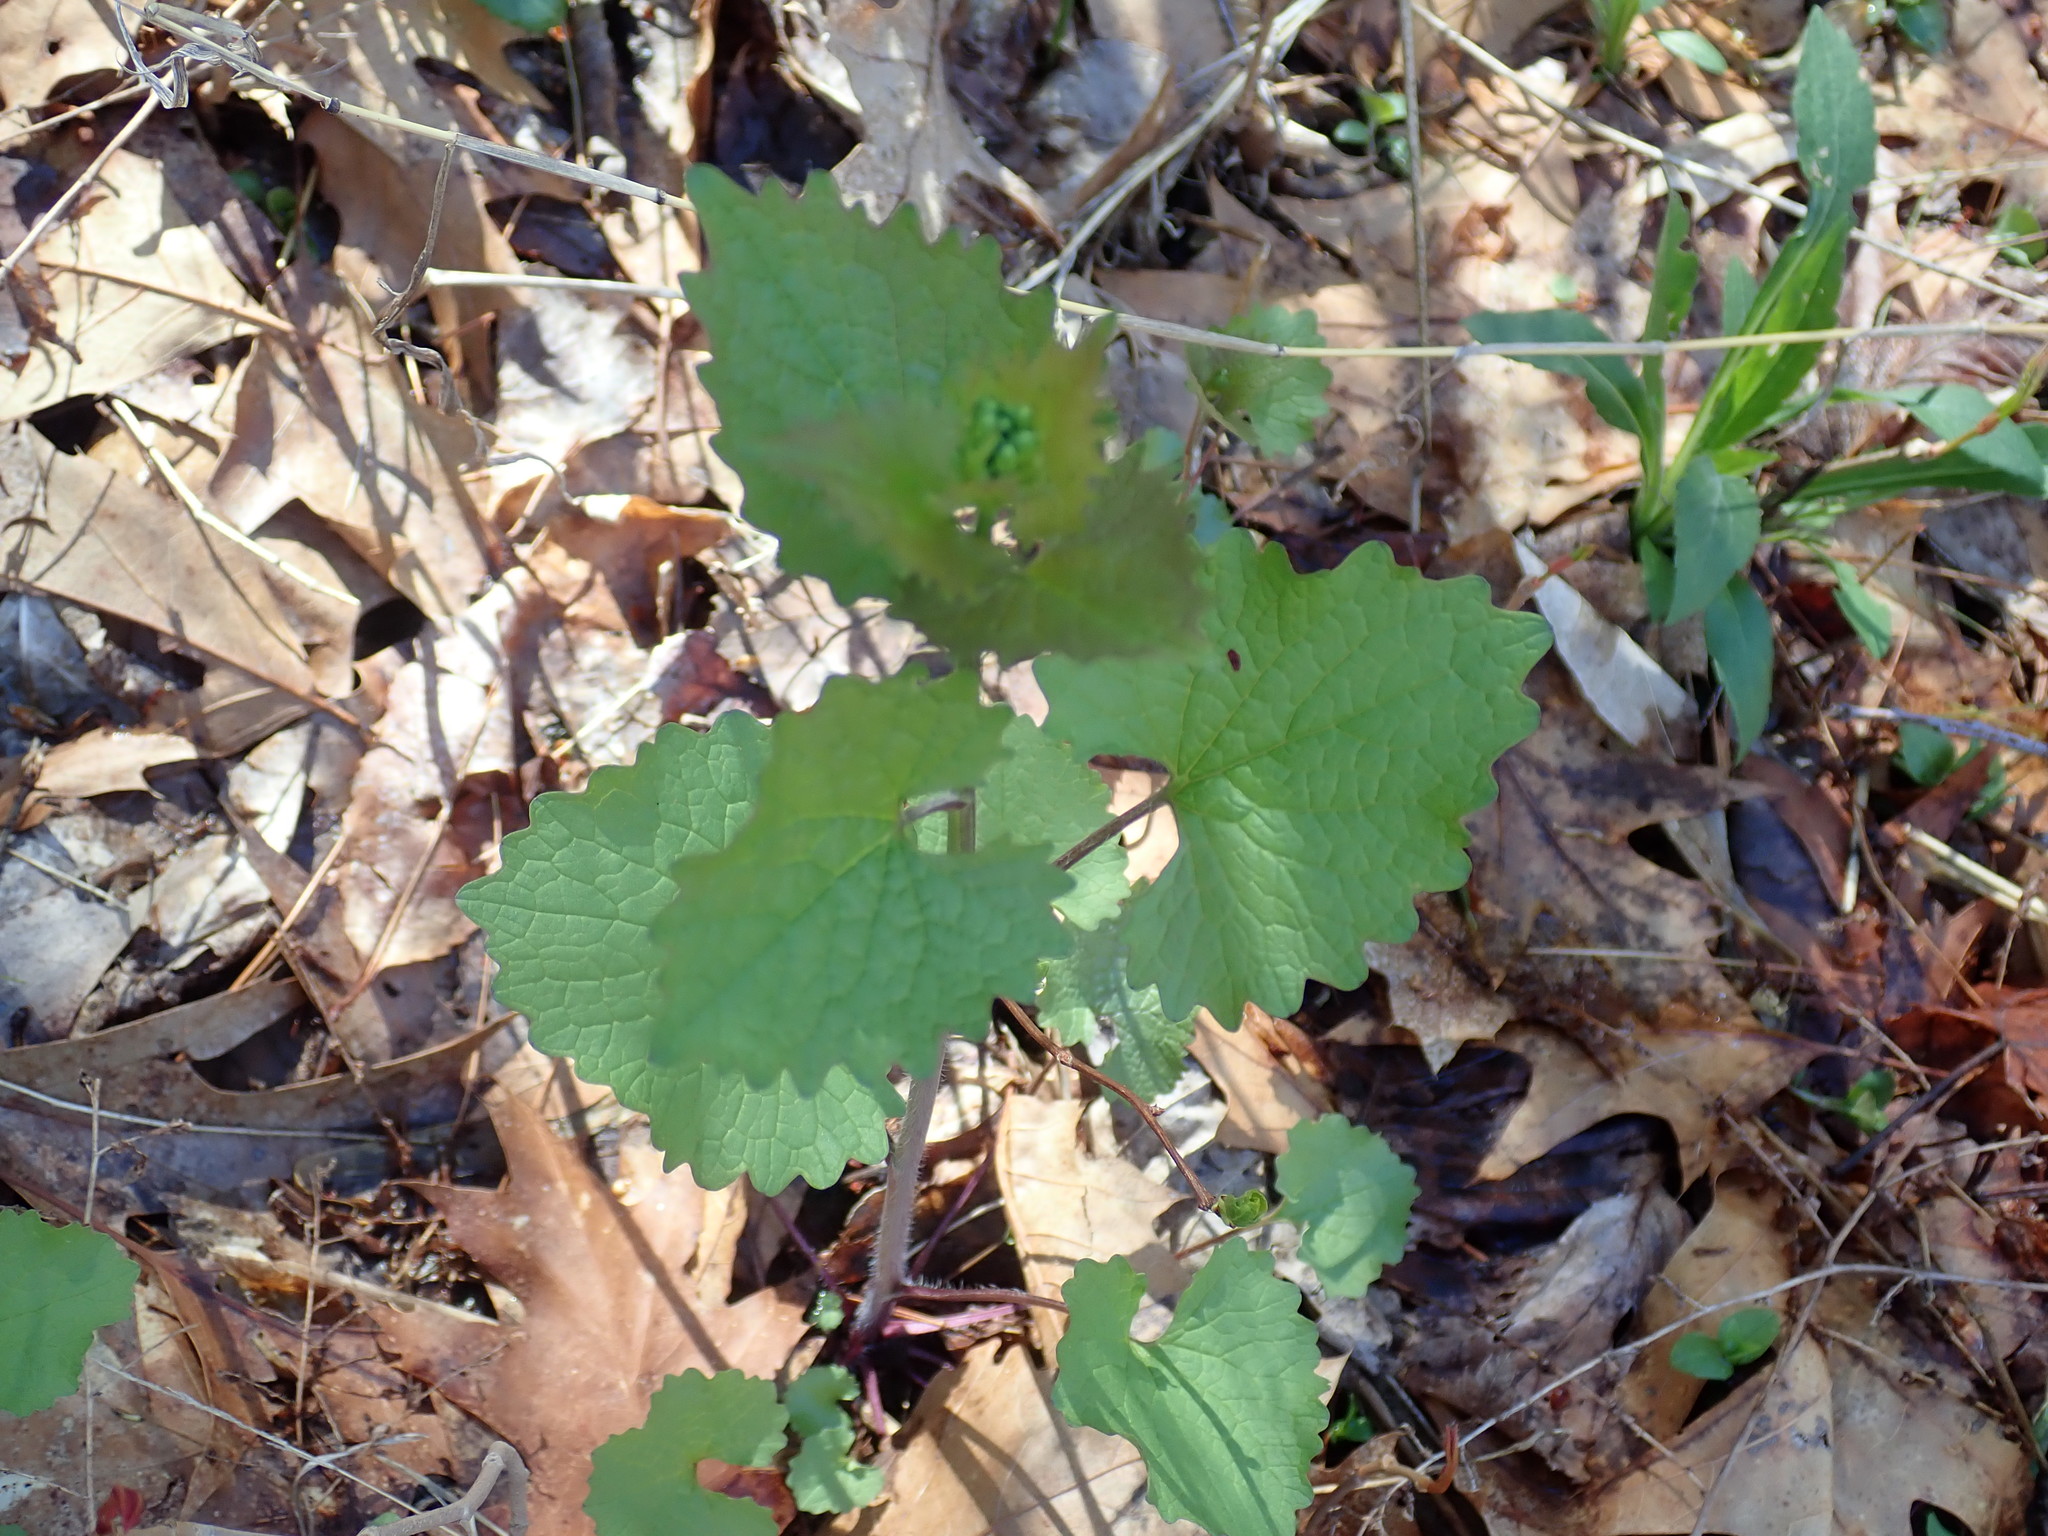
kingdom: Plantae
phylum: Tracheophyta
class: Magnoliopsida
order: Brassicales
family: Brassicaceae
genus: Alliaria
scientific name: Alliaria petiolata
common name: Garlic mustard
